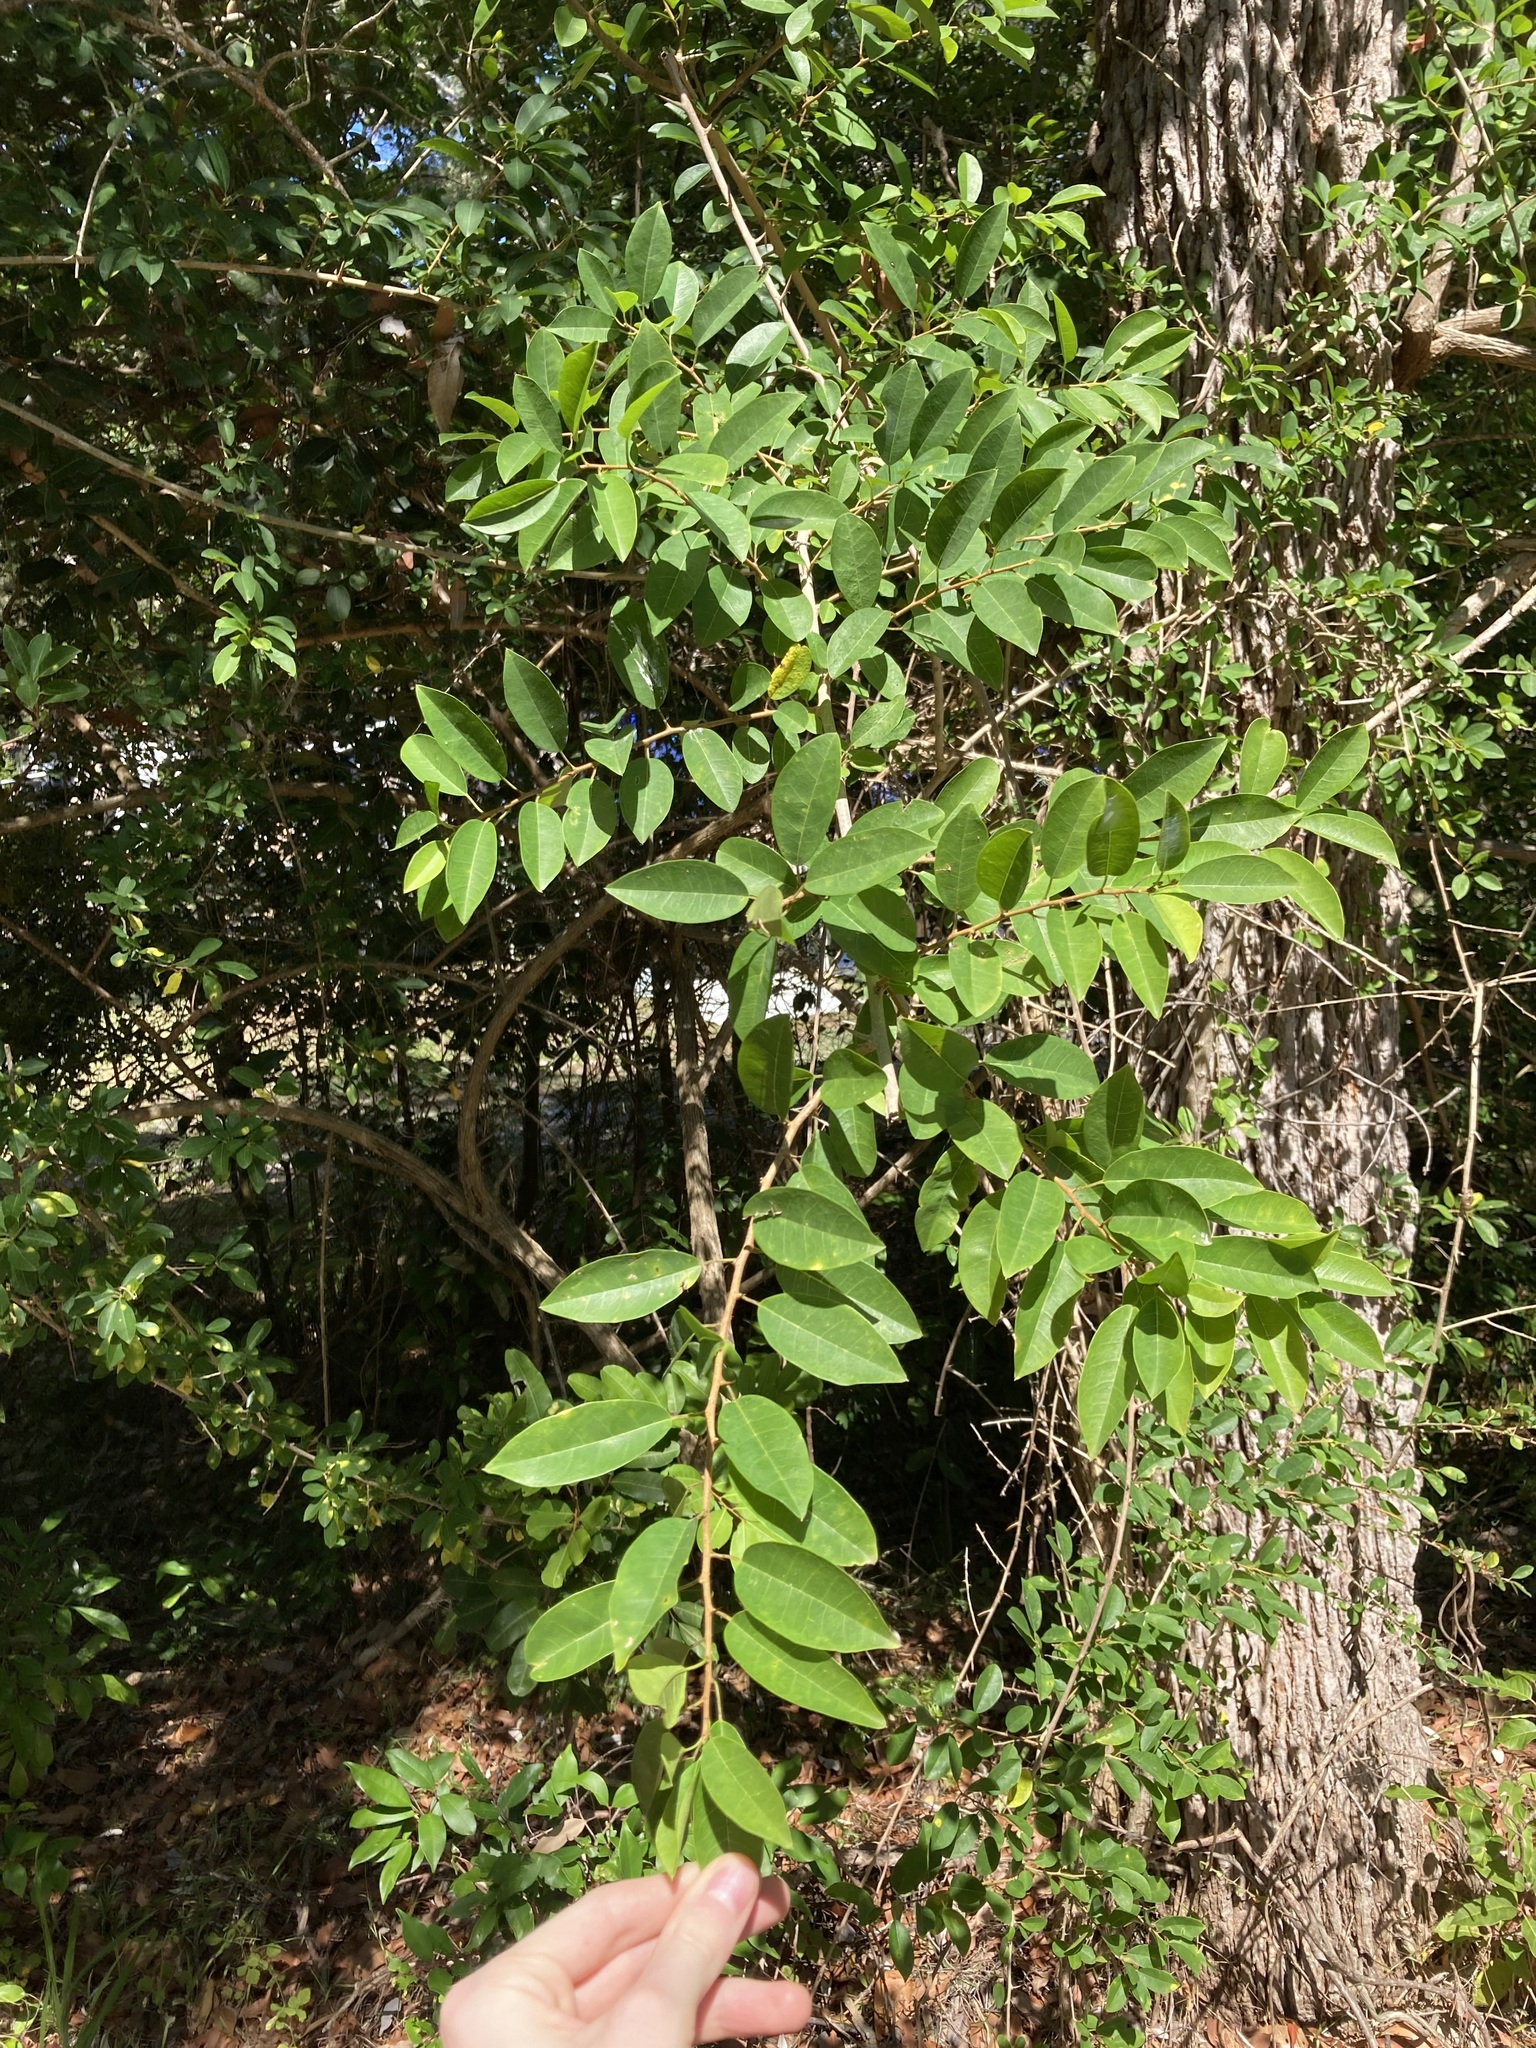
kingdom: Plantae
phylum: Tracheophyta
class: Magnoliopsida
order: Rosales
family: Moraceae
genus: Maclura
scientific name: Maclura cochinchinensis
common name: Cockspurthorn
